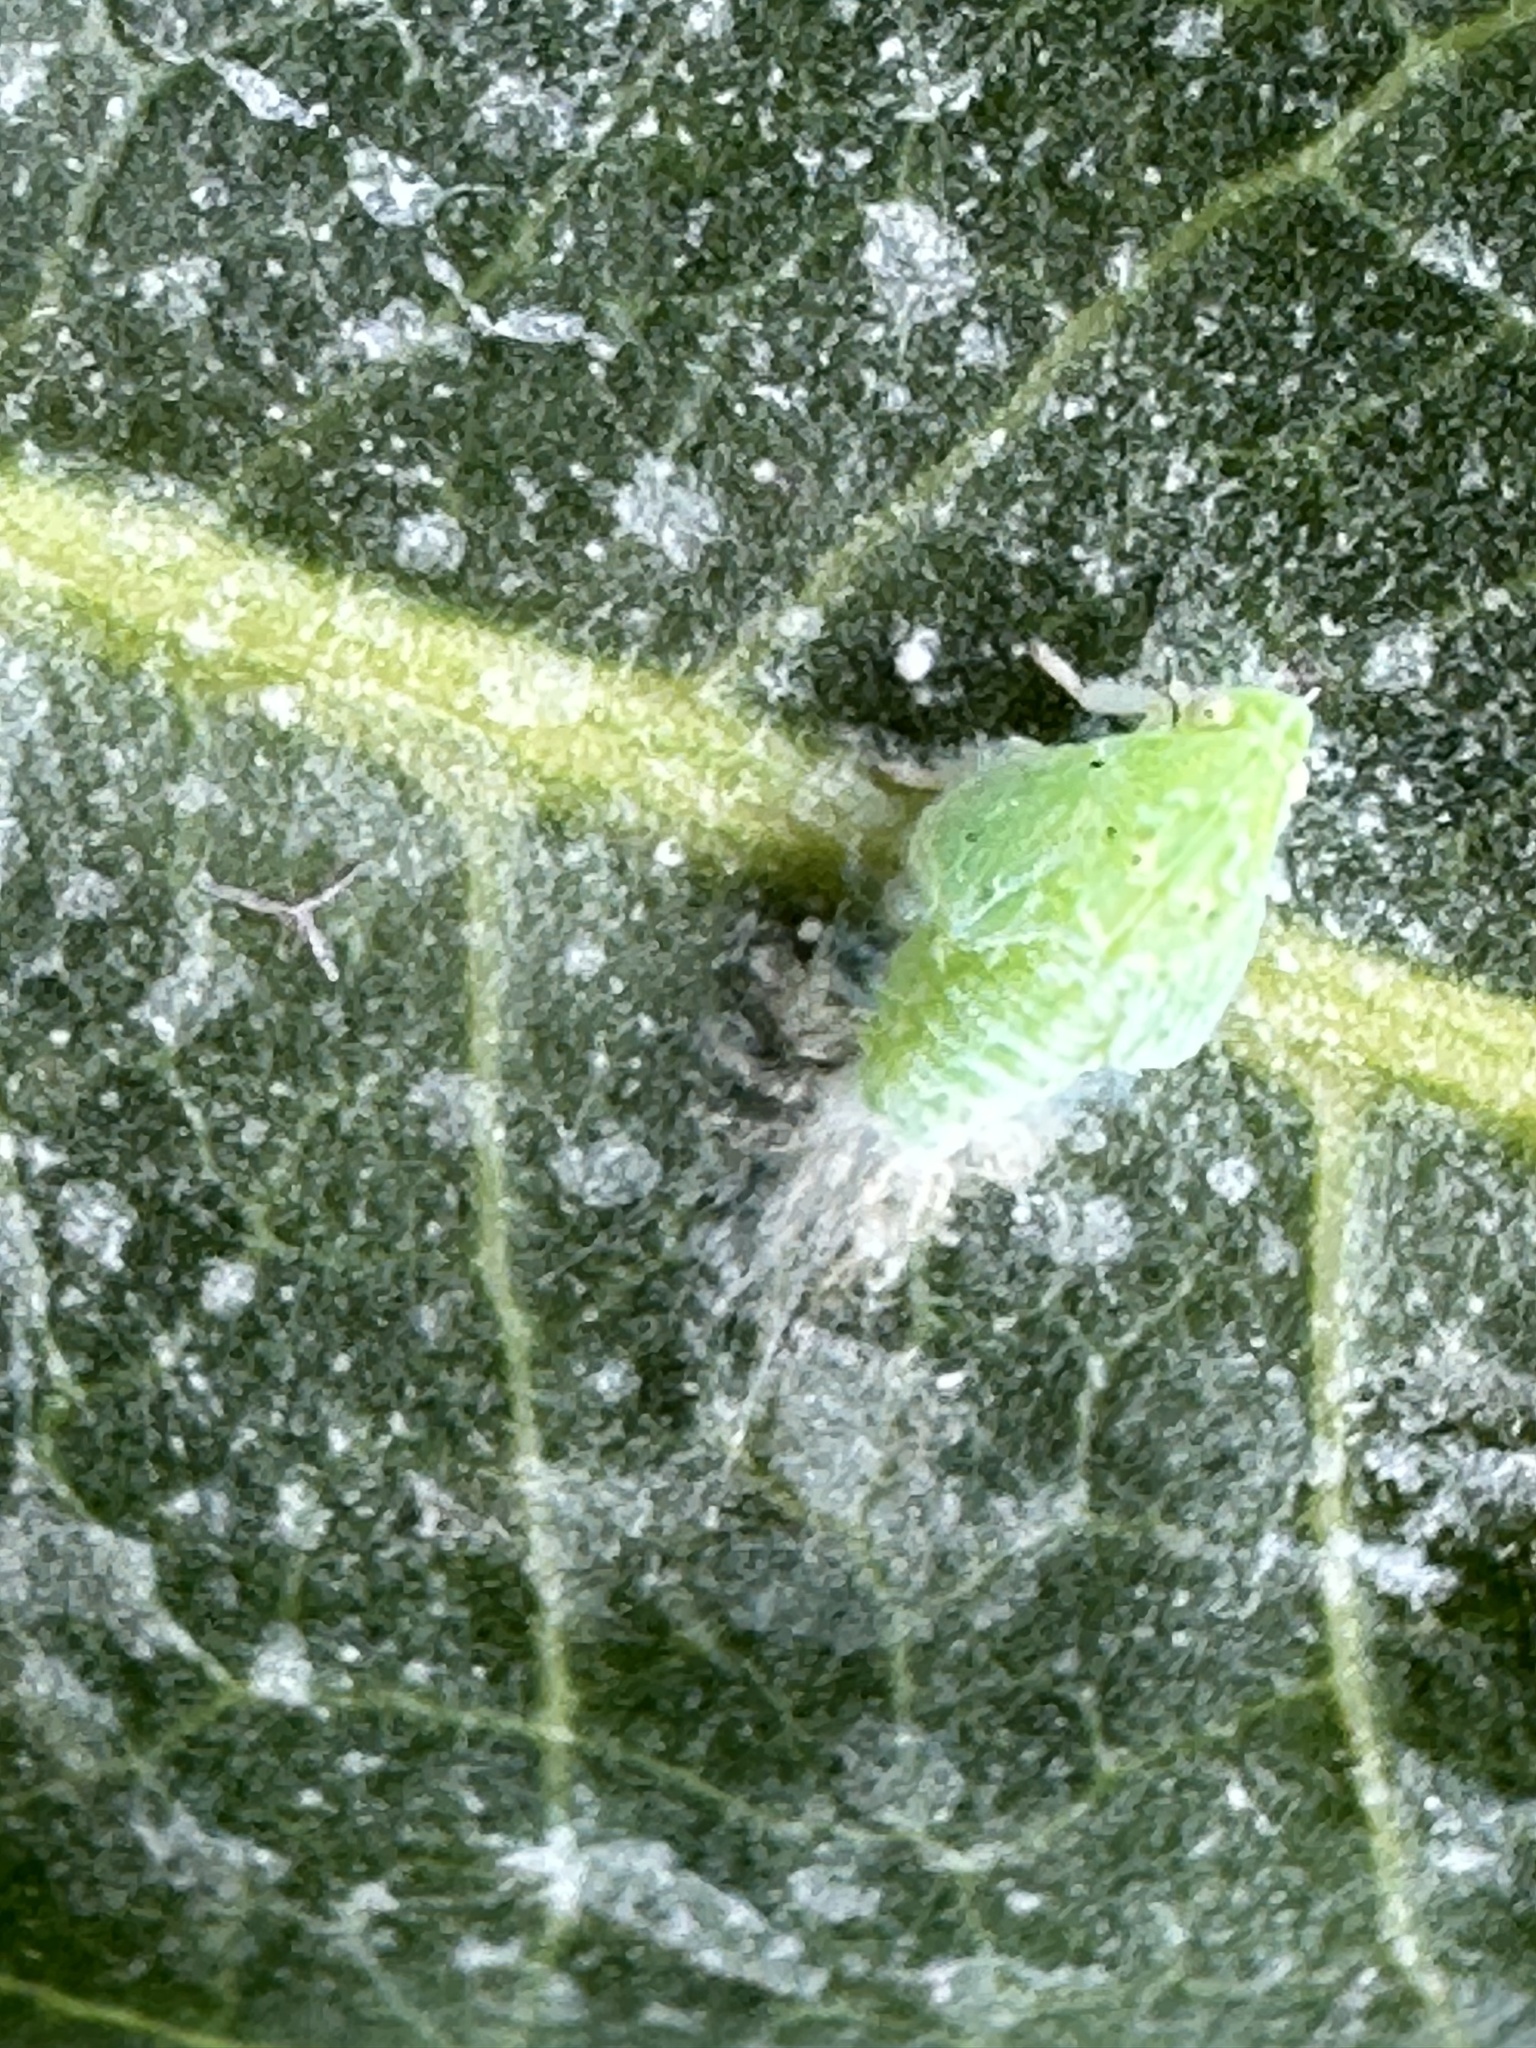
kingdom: Animalia
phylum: Arthropoda
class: Insecta
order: Hemiptera
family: Flatidae
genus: Siphanta
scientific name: Siphanta acuta
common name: Torpedo bug
